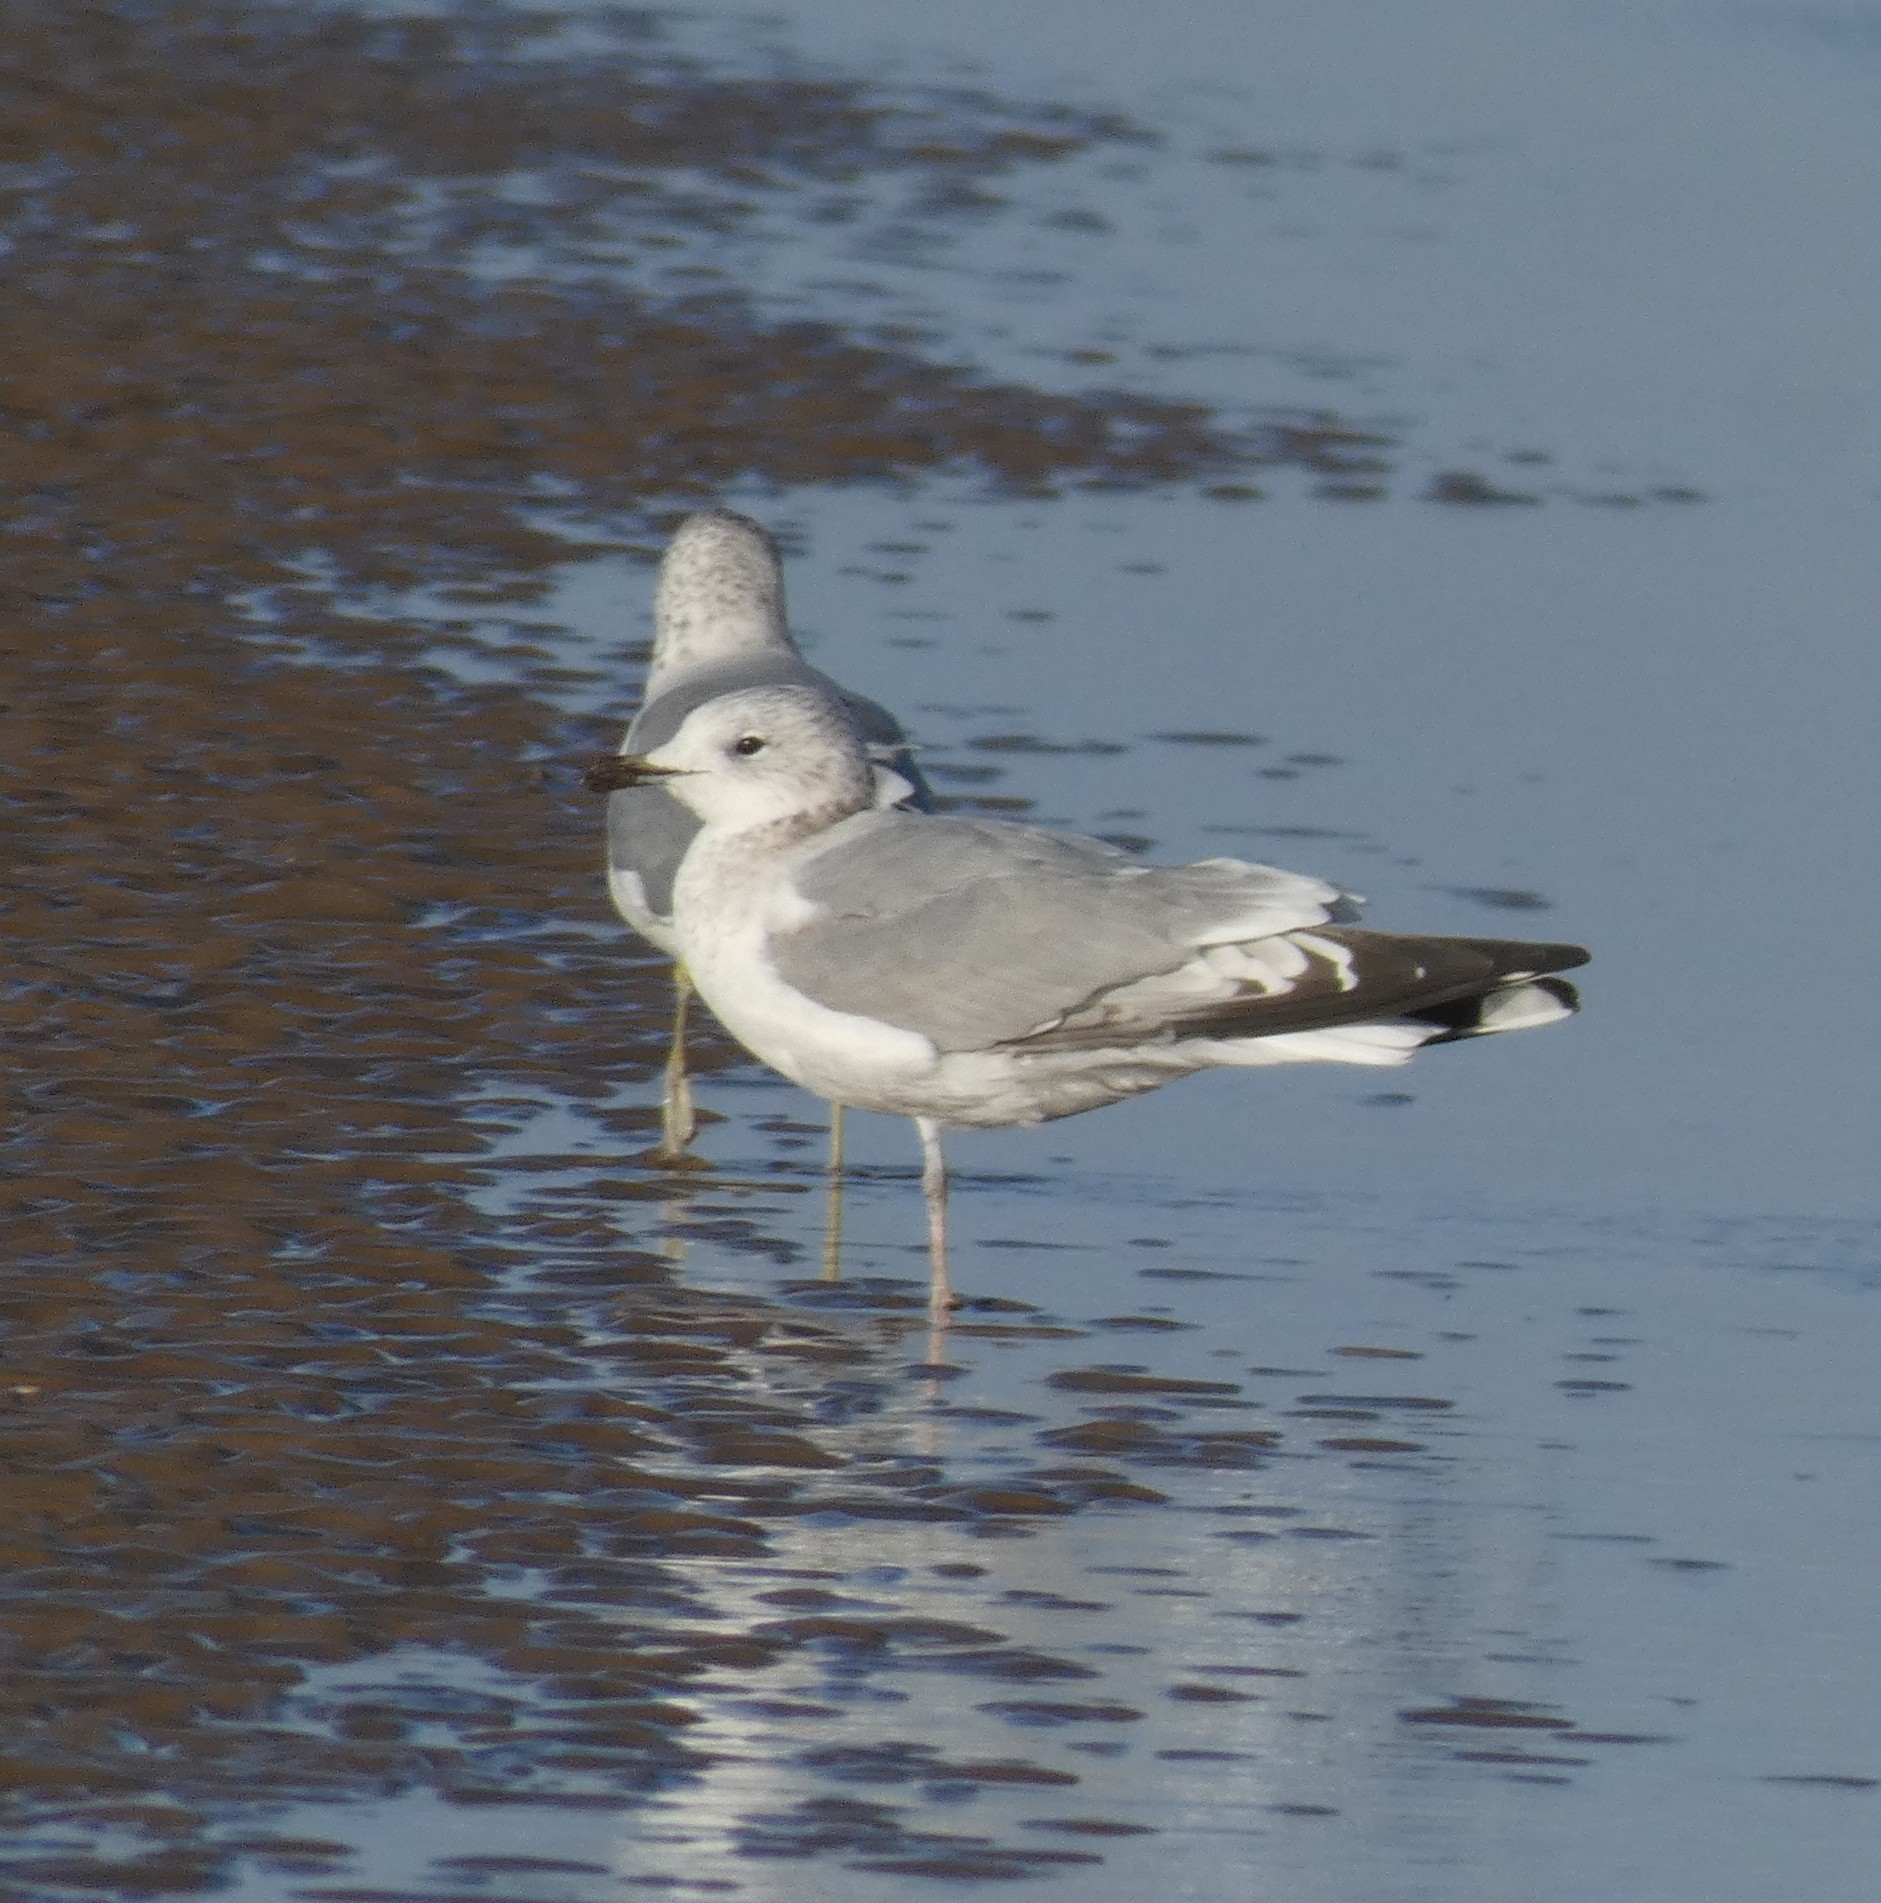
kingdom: Animalia
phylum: Chordata
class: Aves
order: Charadriiformes
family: Laridae
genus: Larus
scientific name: Larus canus
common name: Mew gull
